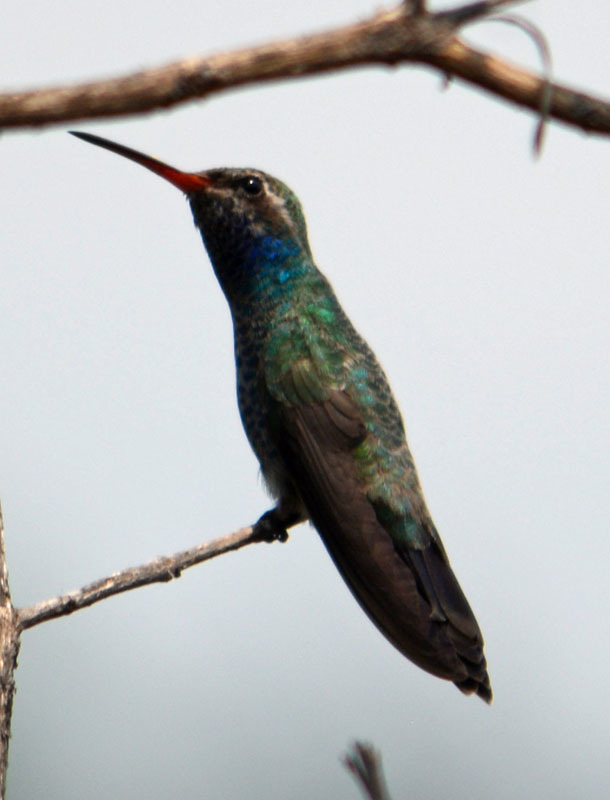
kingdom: Animalia
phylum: Chordata
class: Aves
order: Apodiformes
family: Trochilidae
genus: Cynanthus
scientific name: Cynanthus latirostris
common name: Broad-billed hummingbird
